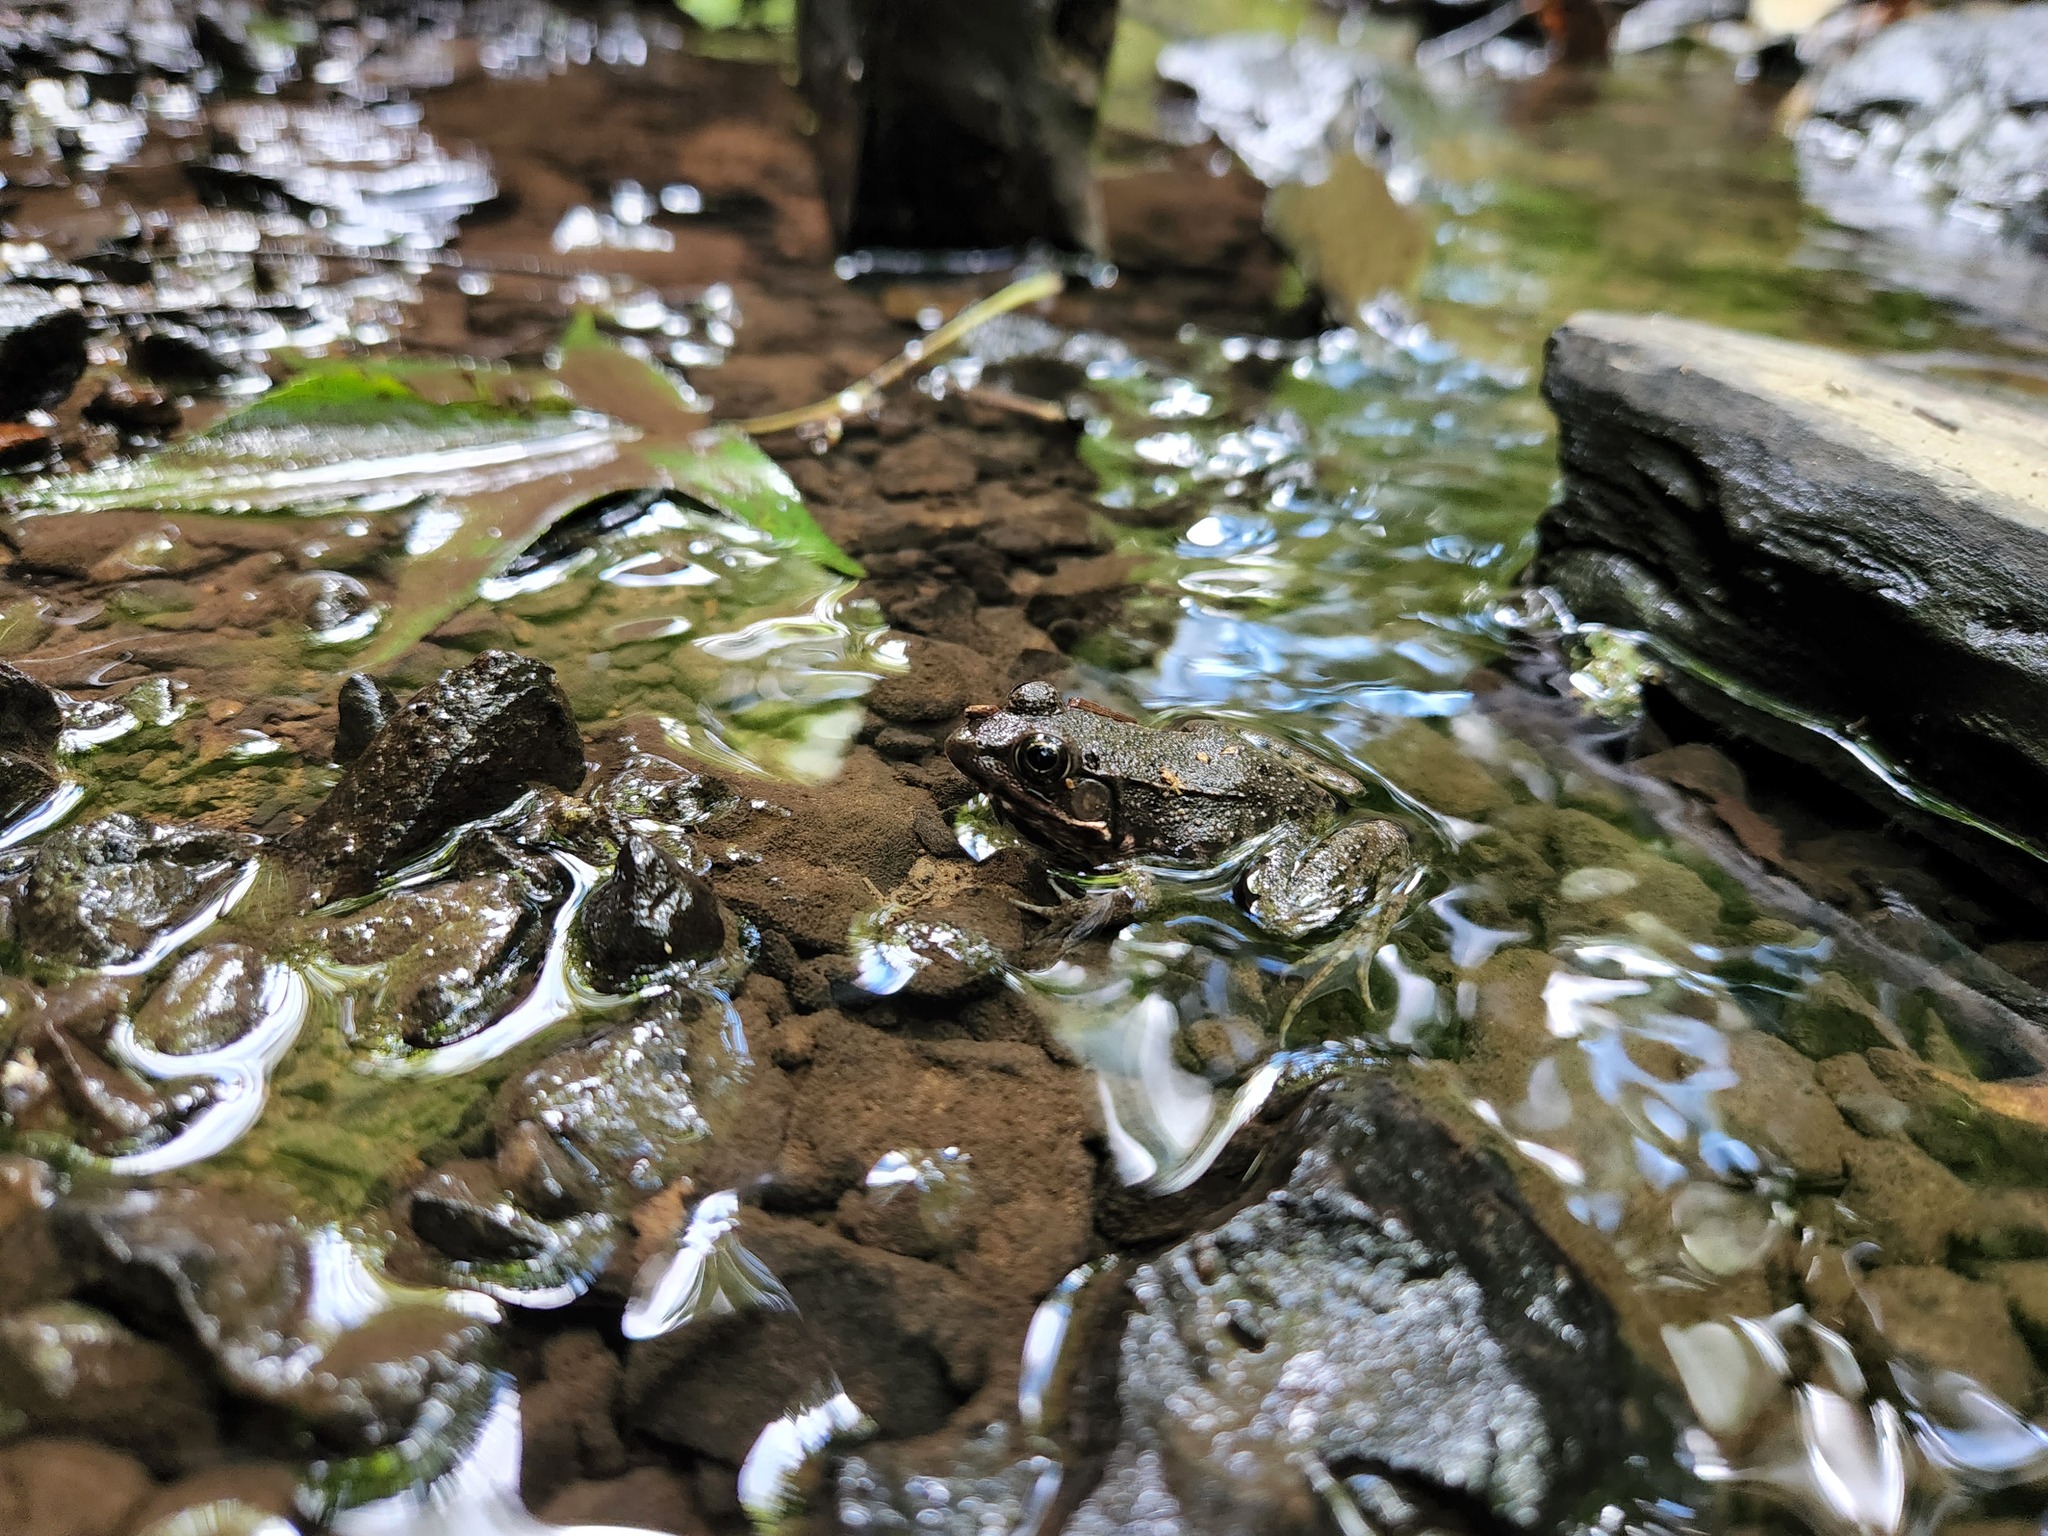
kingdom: Animalia
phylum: Chordata
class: Amphibia
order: Anura
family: Ranidae
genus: Lithobates
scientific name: Lithobates clamitans
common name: Green frog
